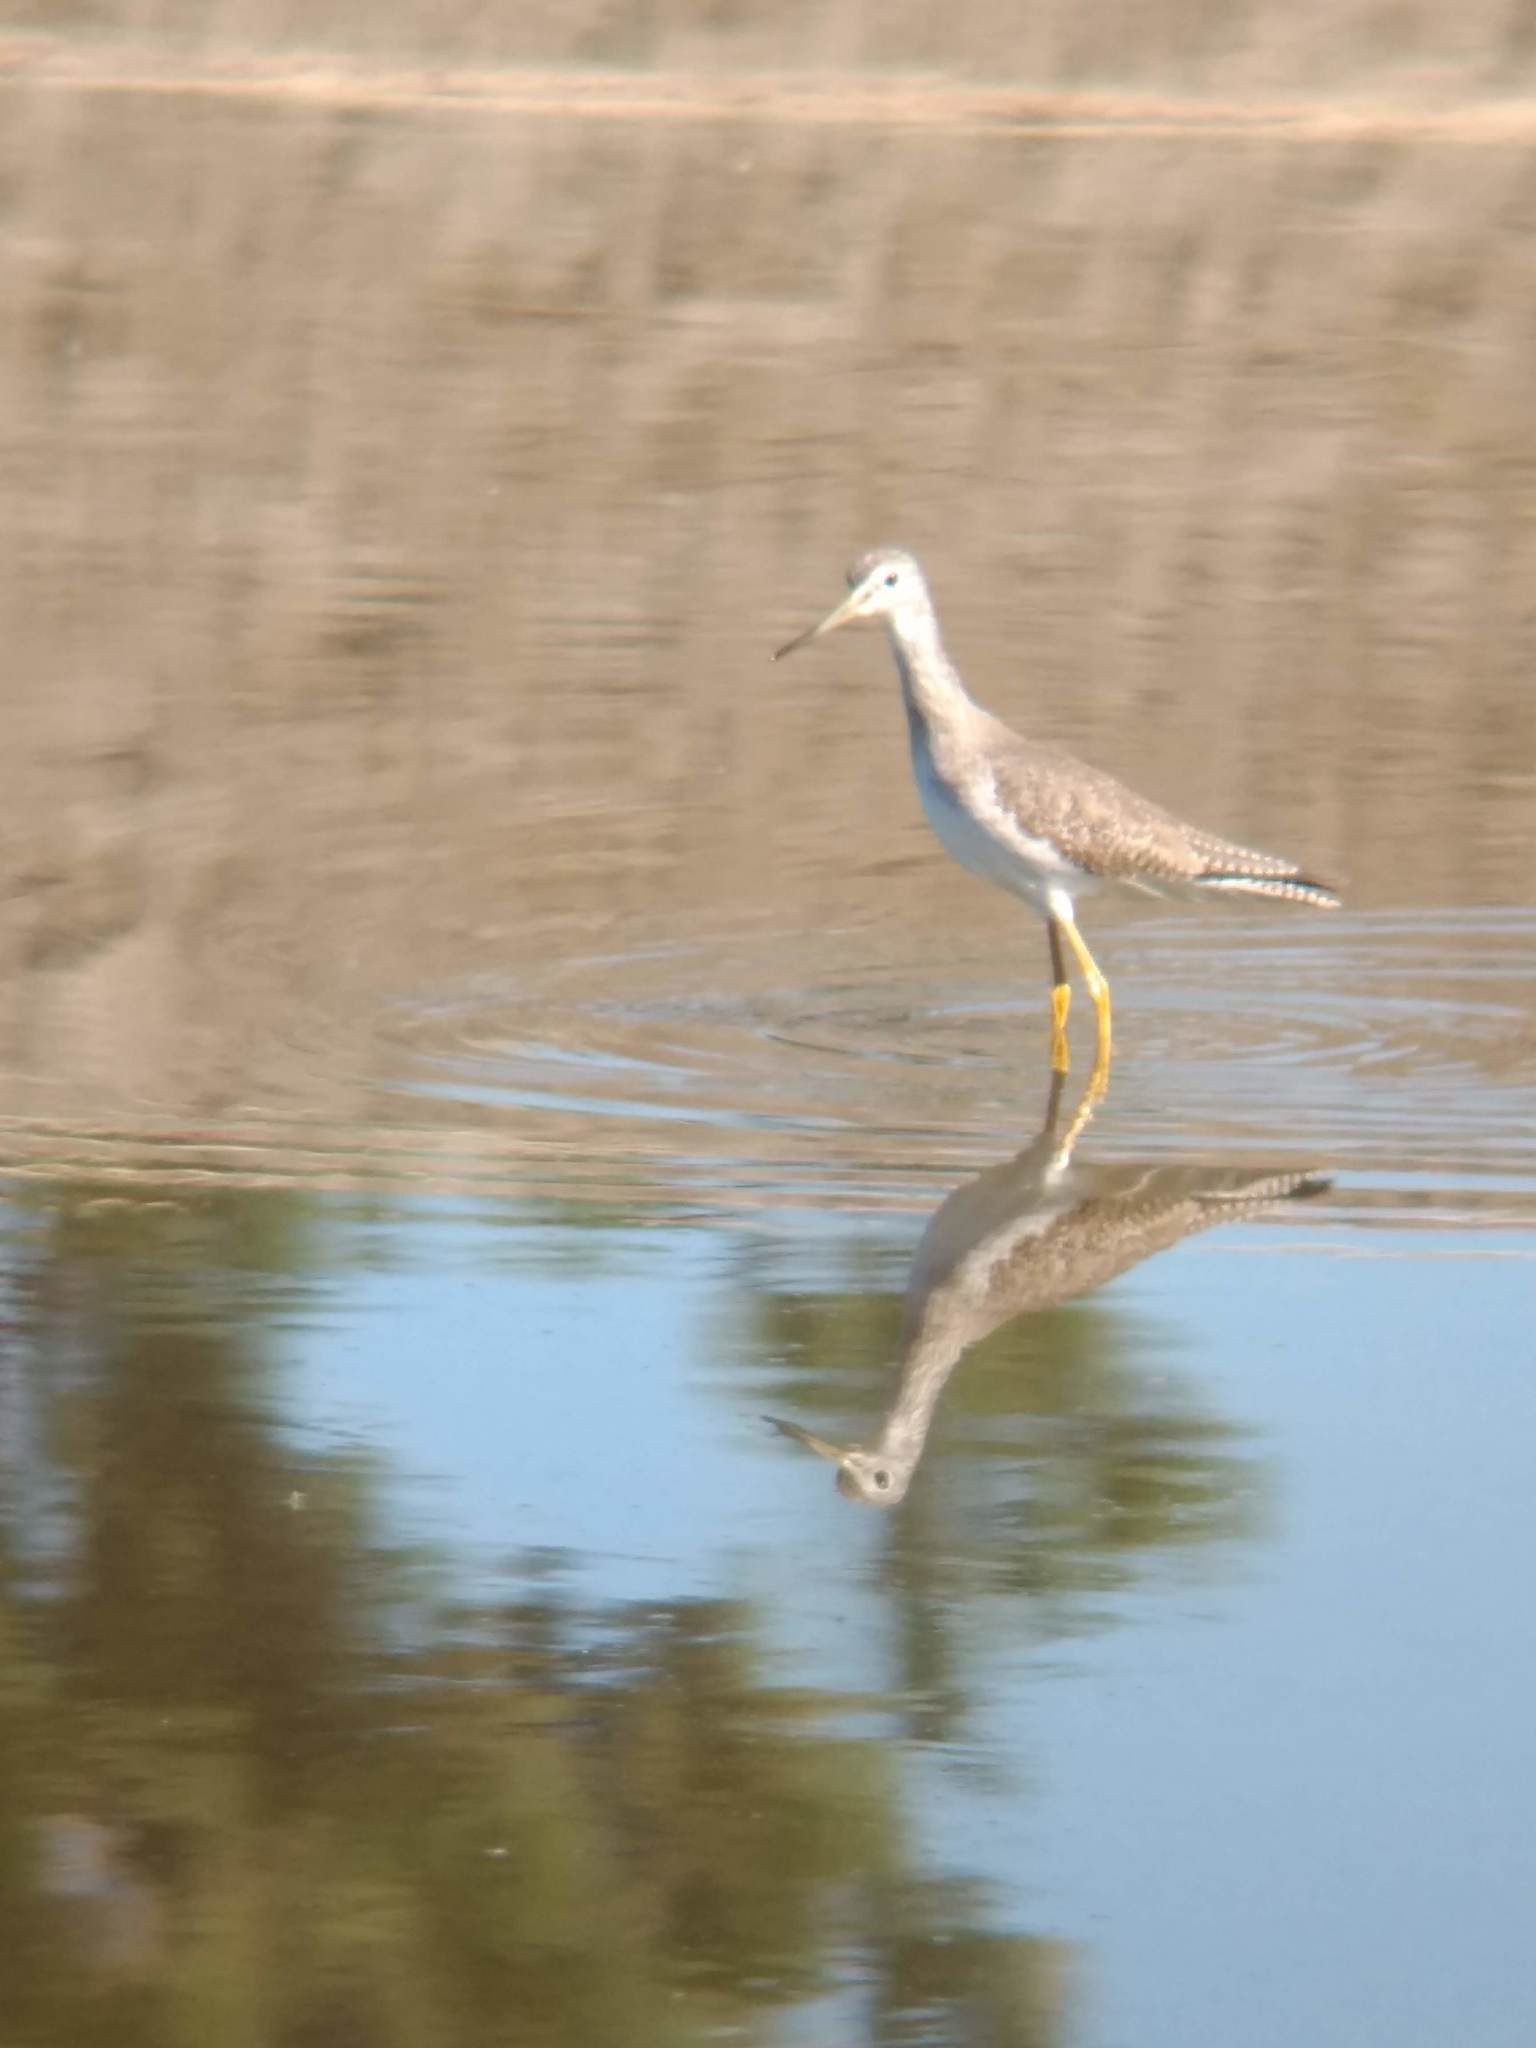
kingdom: Animalia
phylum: Chordata
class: Aves
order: Charadriiformes
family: Scolopacidae
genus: Tringa
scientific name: Tringa melanoleuca
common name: Greater yellowlegs
